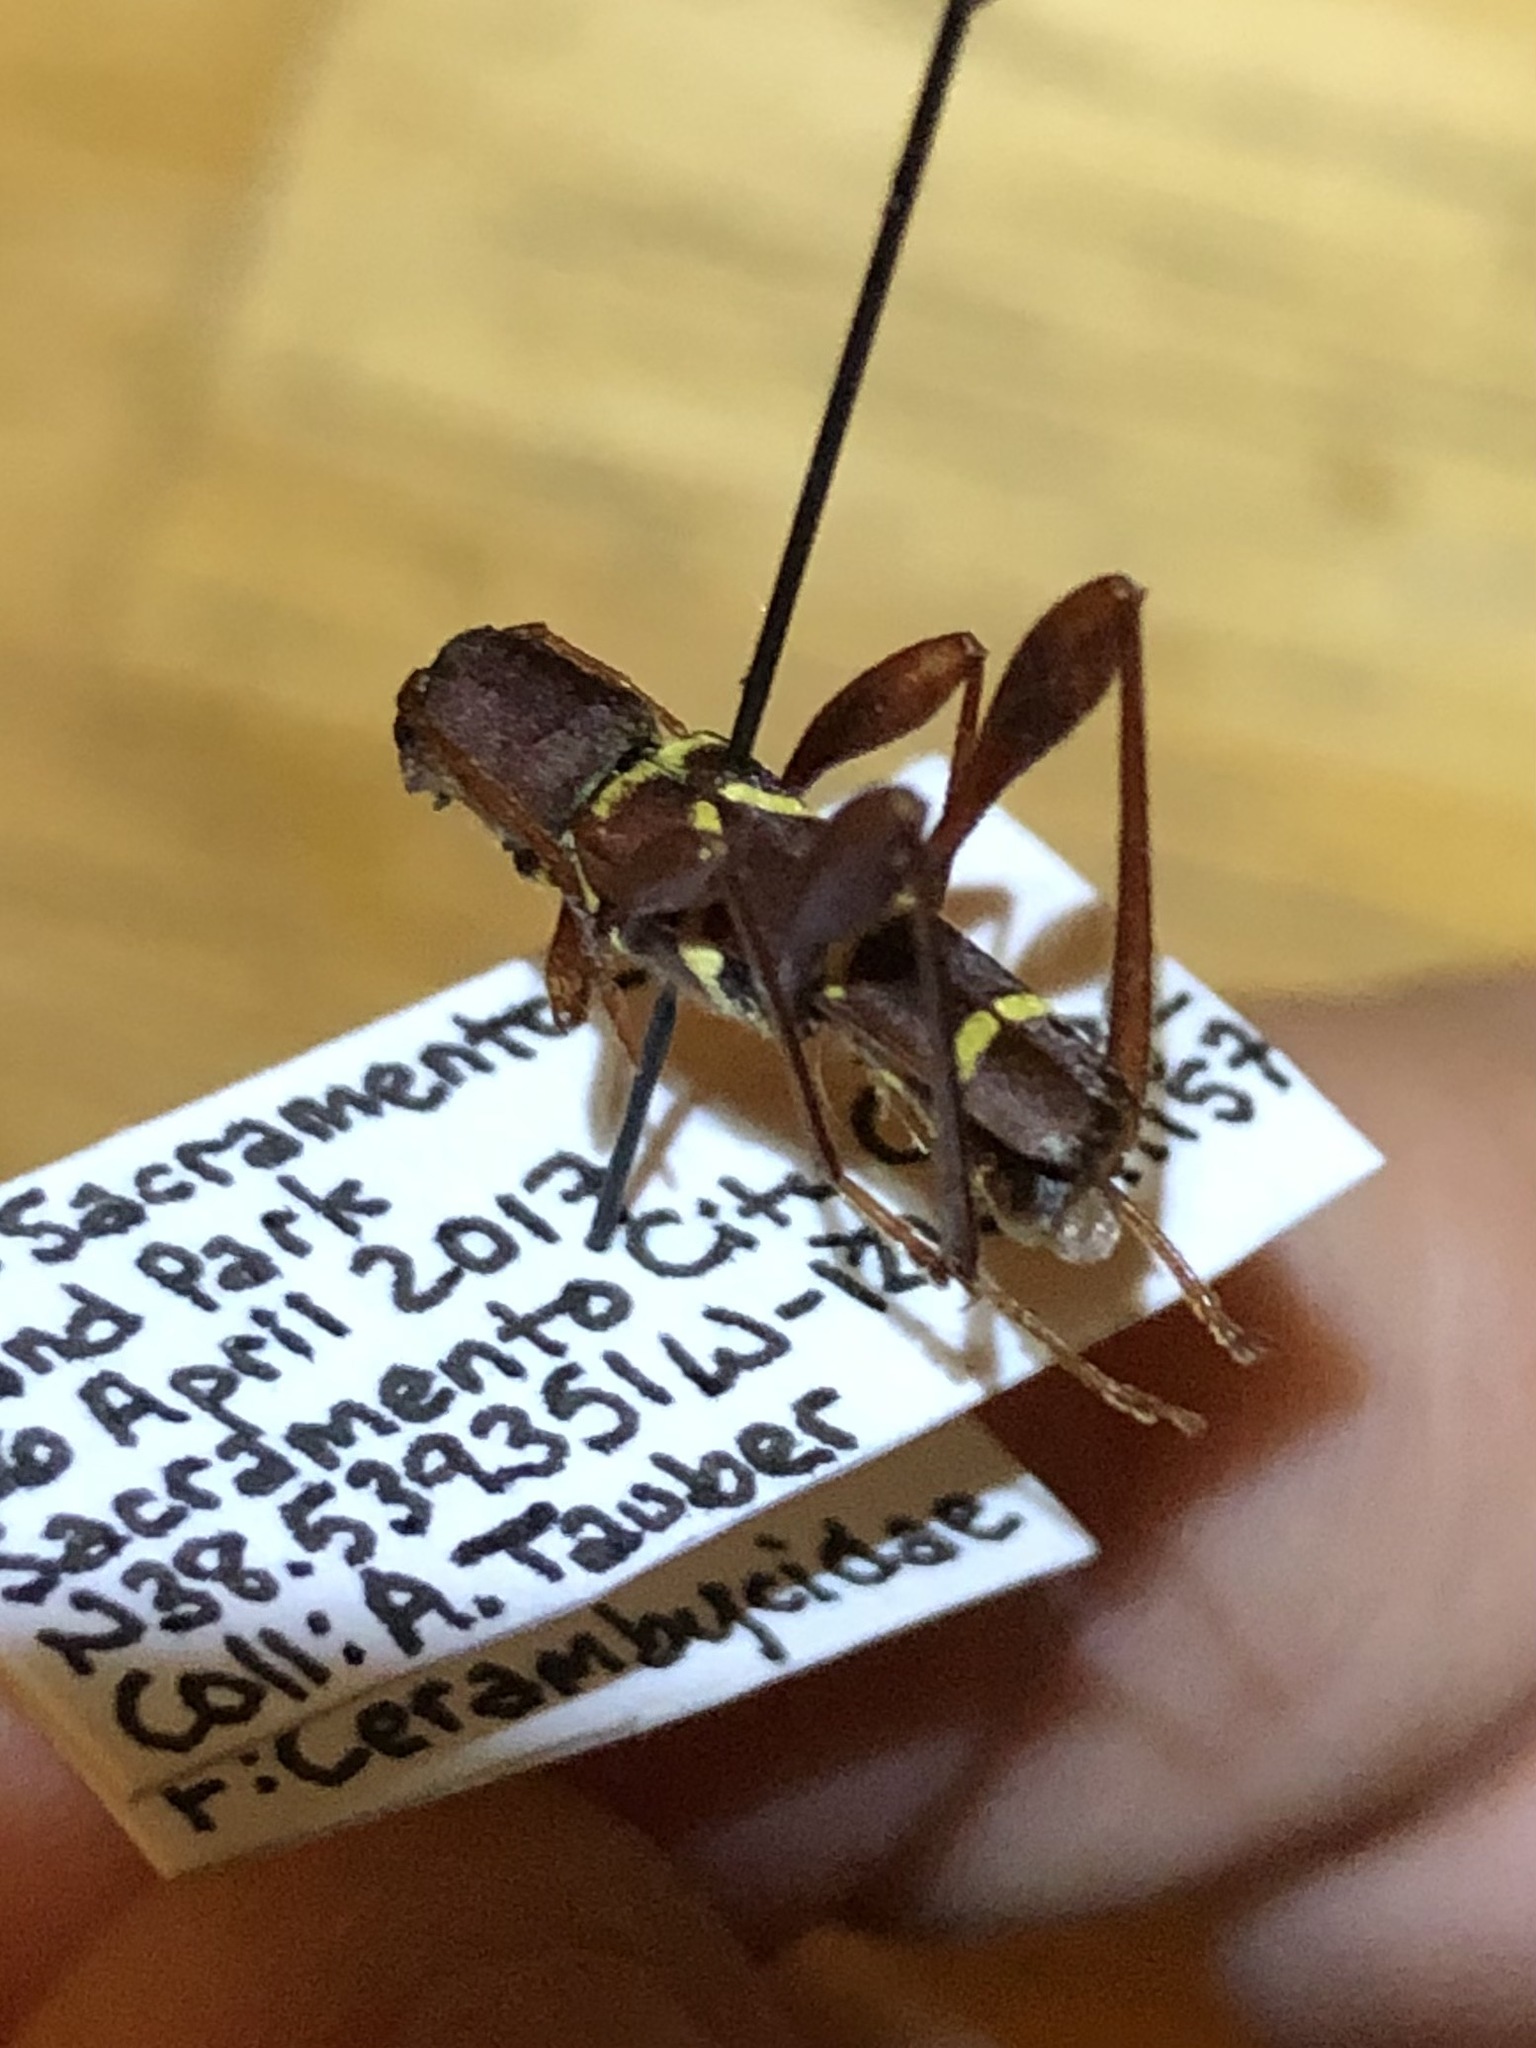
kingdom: Animalia
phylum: Arthropoda
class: Insecta
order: Coleoptera
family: Cerambycidae
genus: Neoclytus
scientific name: Neoclytus acuminatus
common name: Read-headed ash borer
